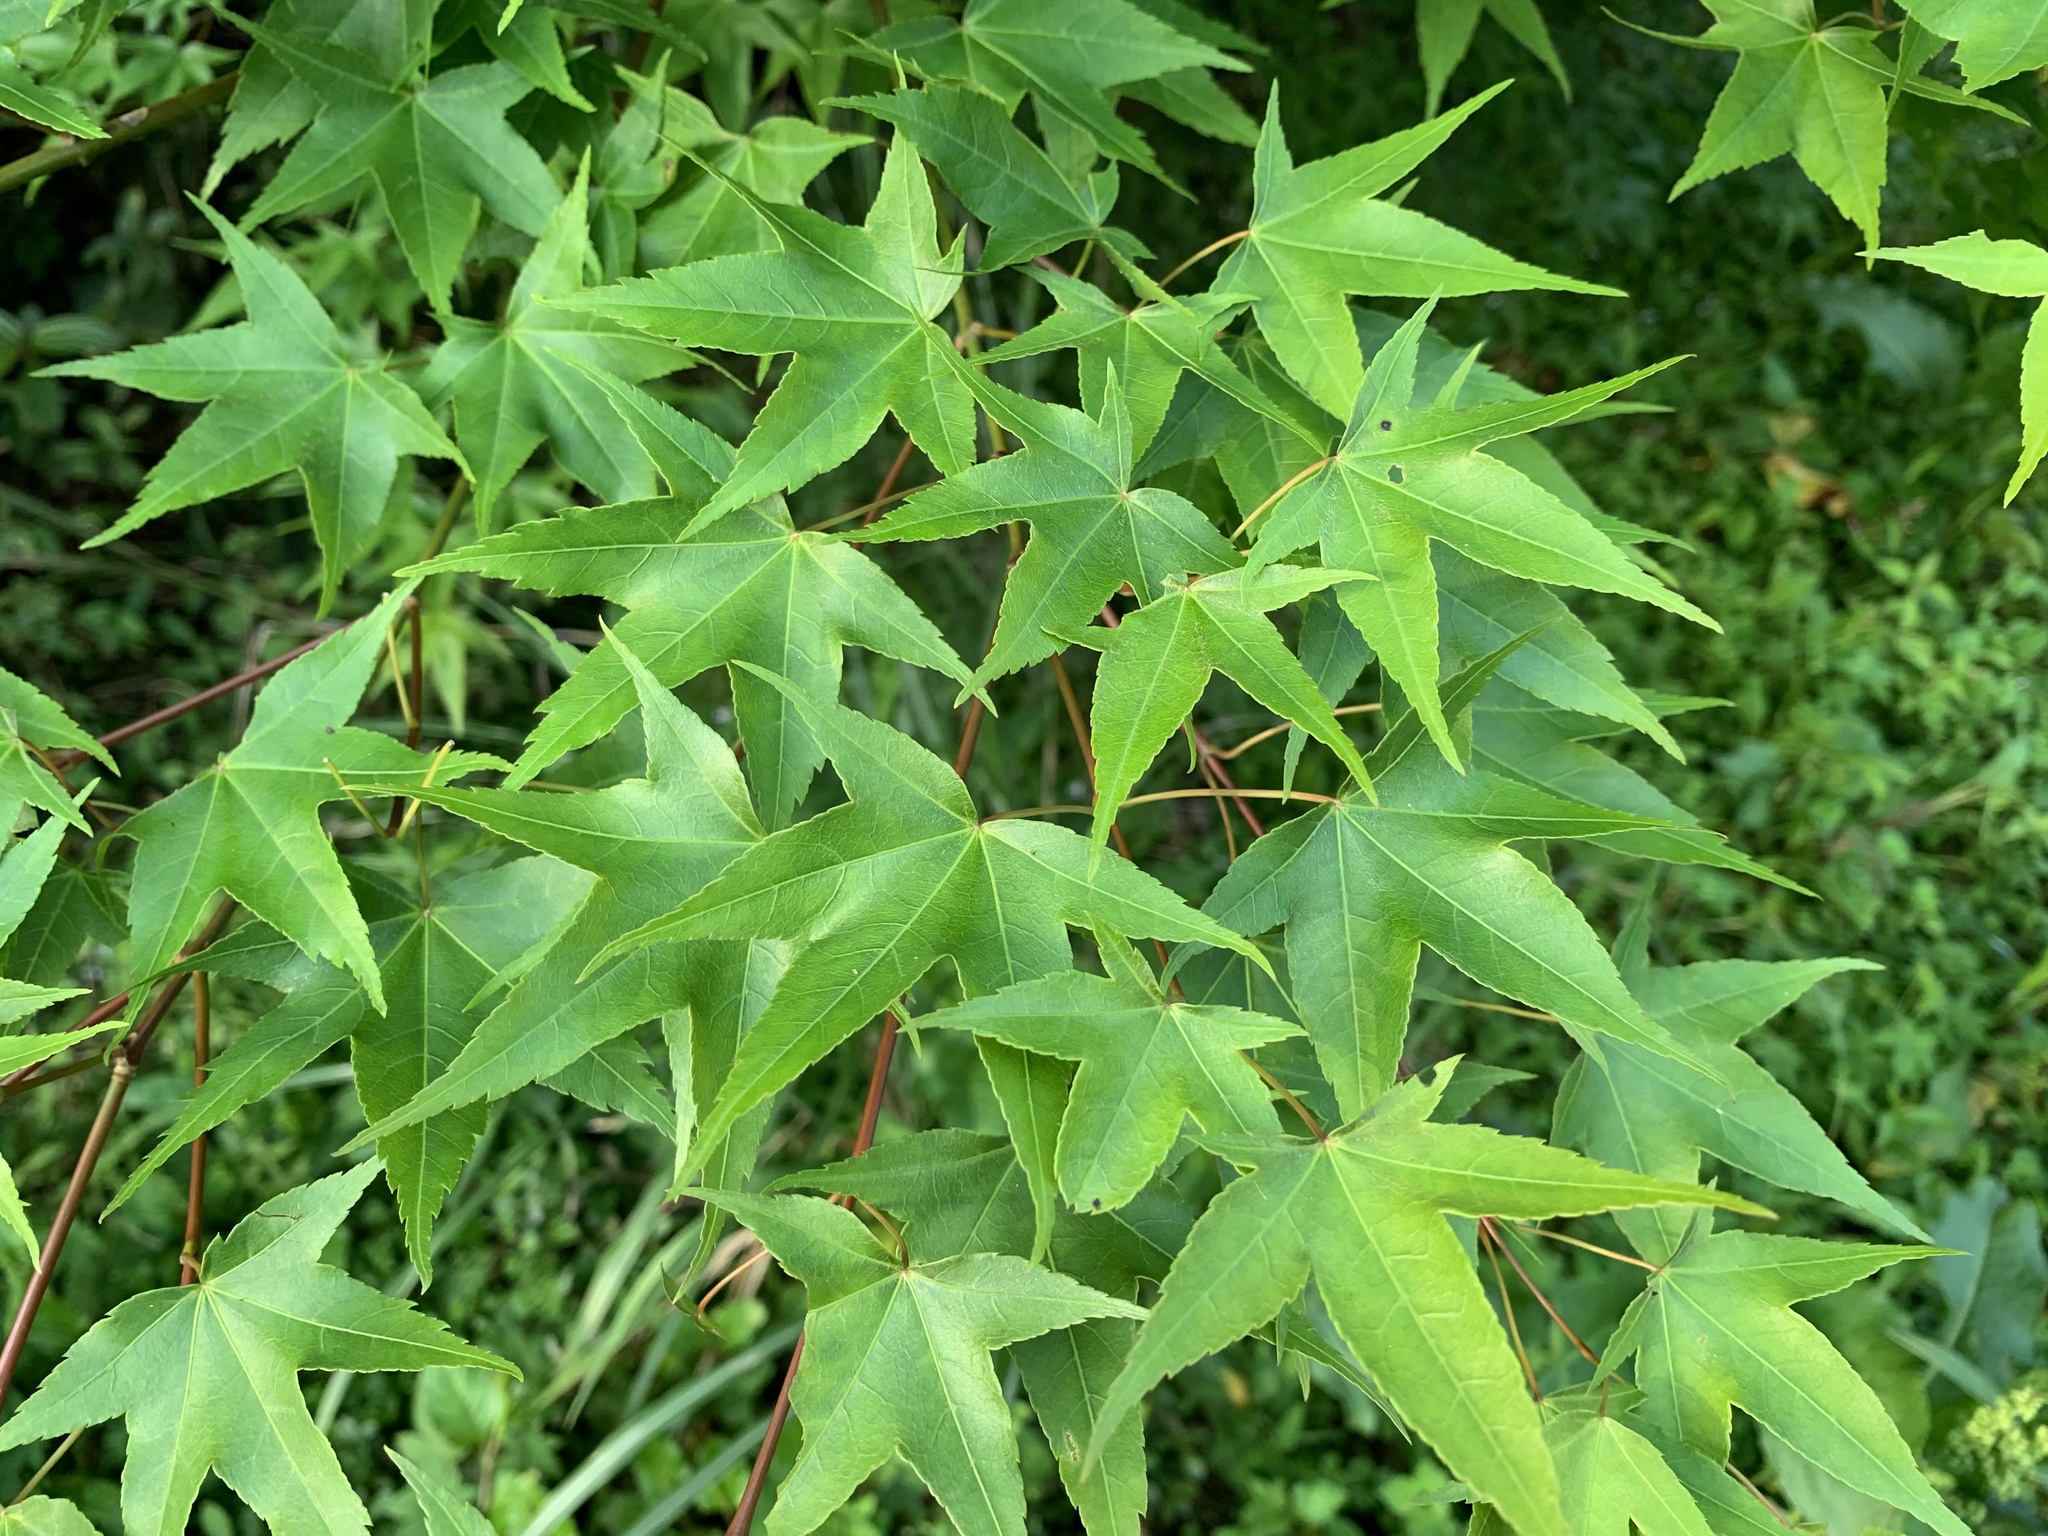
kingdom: Plantae
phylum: Tracheophyta
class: Magnoliopsida
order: Sapindales
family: Sapindaceae
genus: Acer
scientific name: Acer serrulatum
